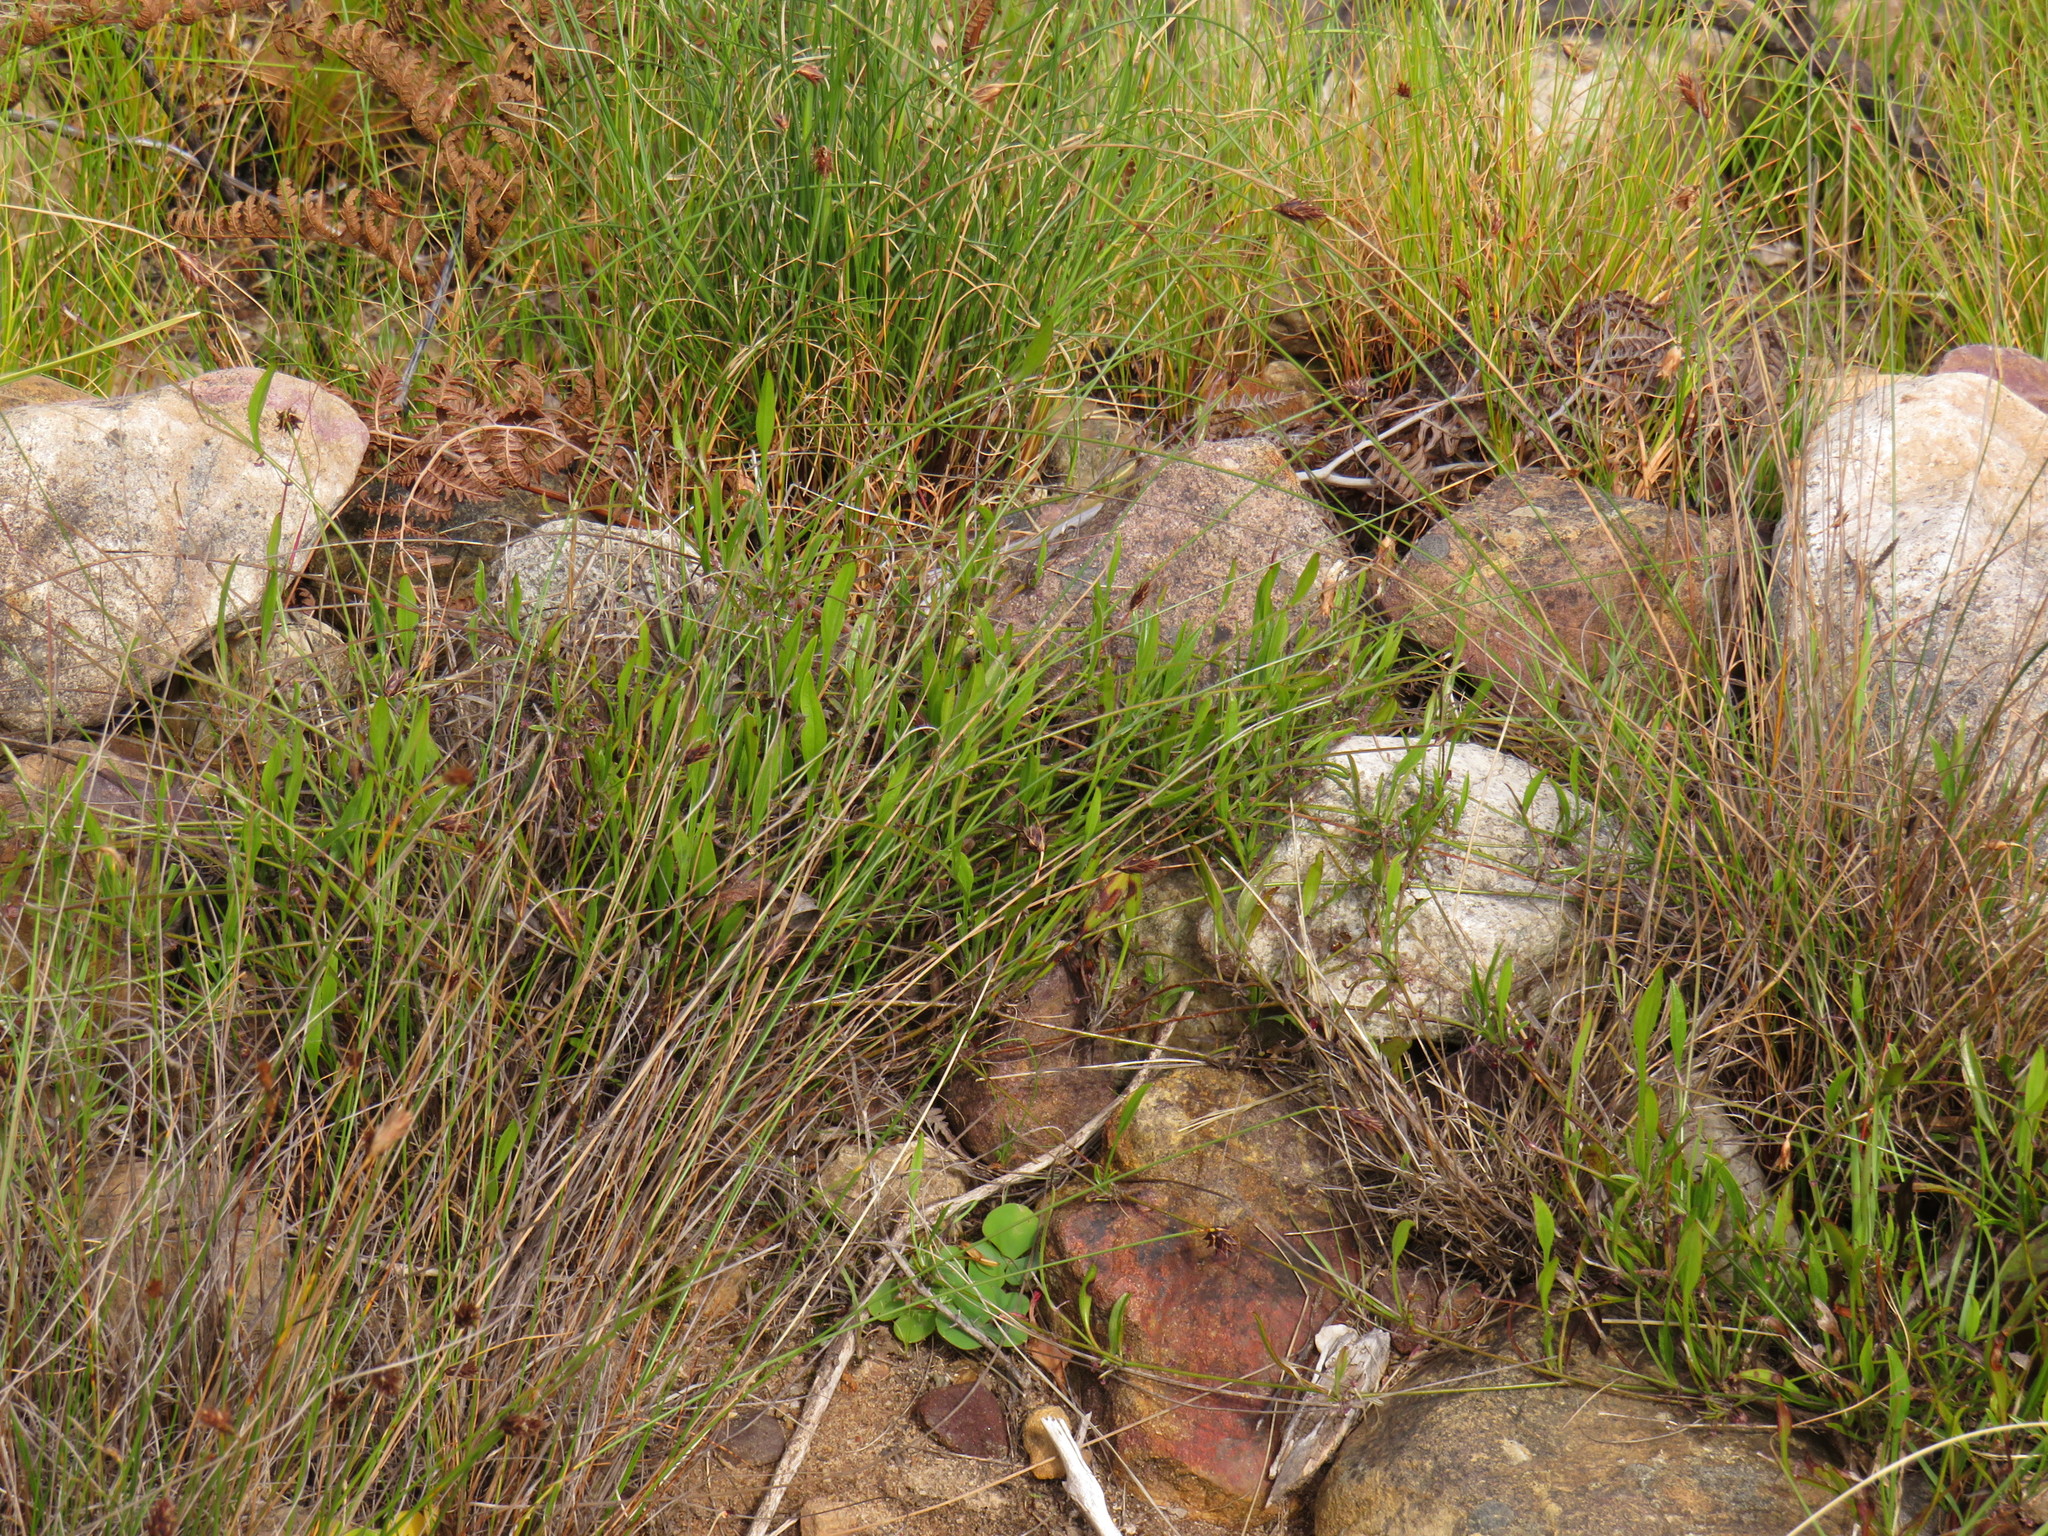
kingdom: Plantae
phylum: Tracheophyta
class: Magnoliopsida
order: Apiales
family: Apiaceae
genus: Centella
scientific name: Centella glabrata
